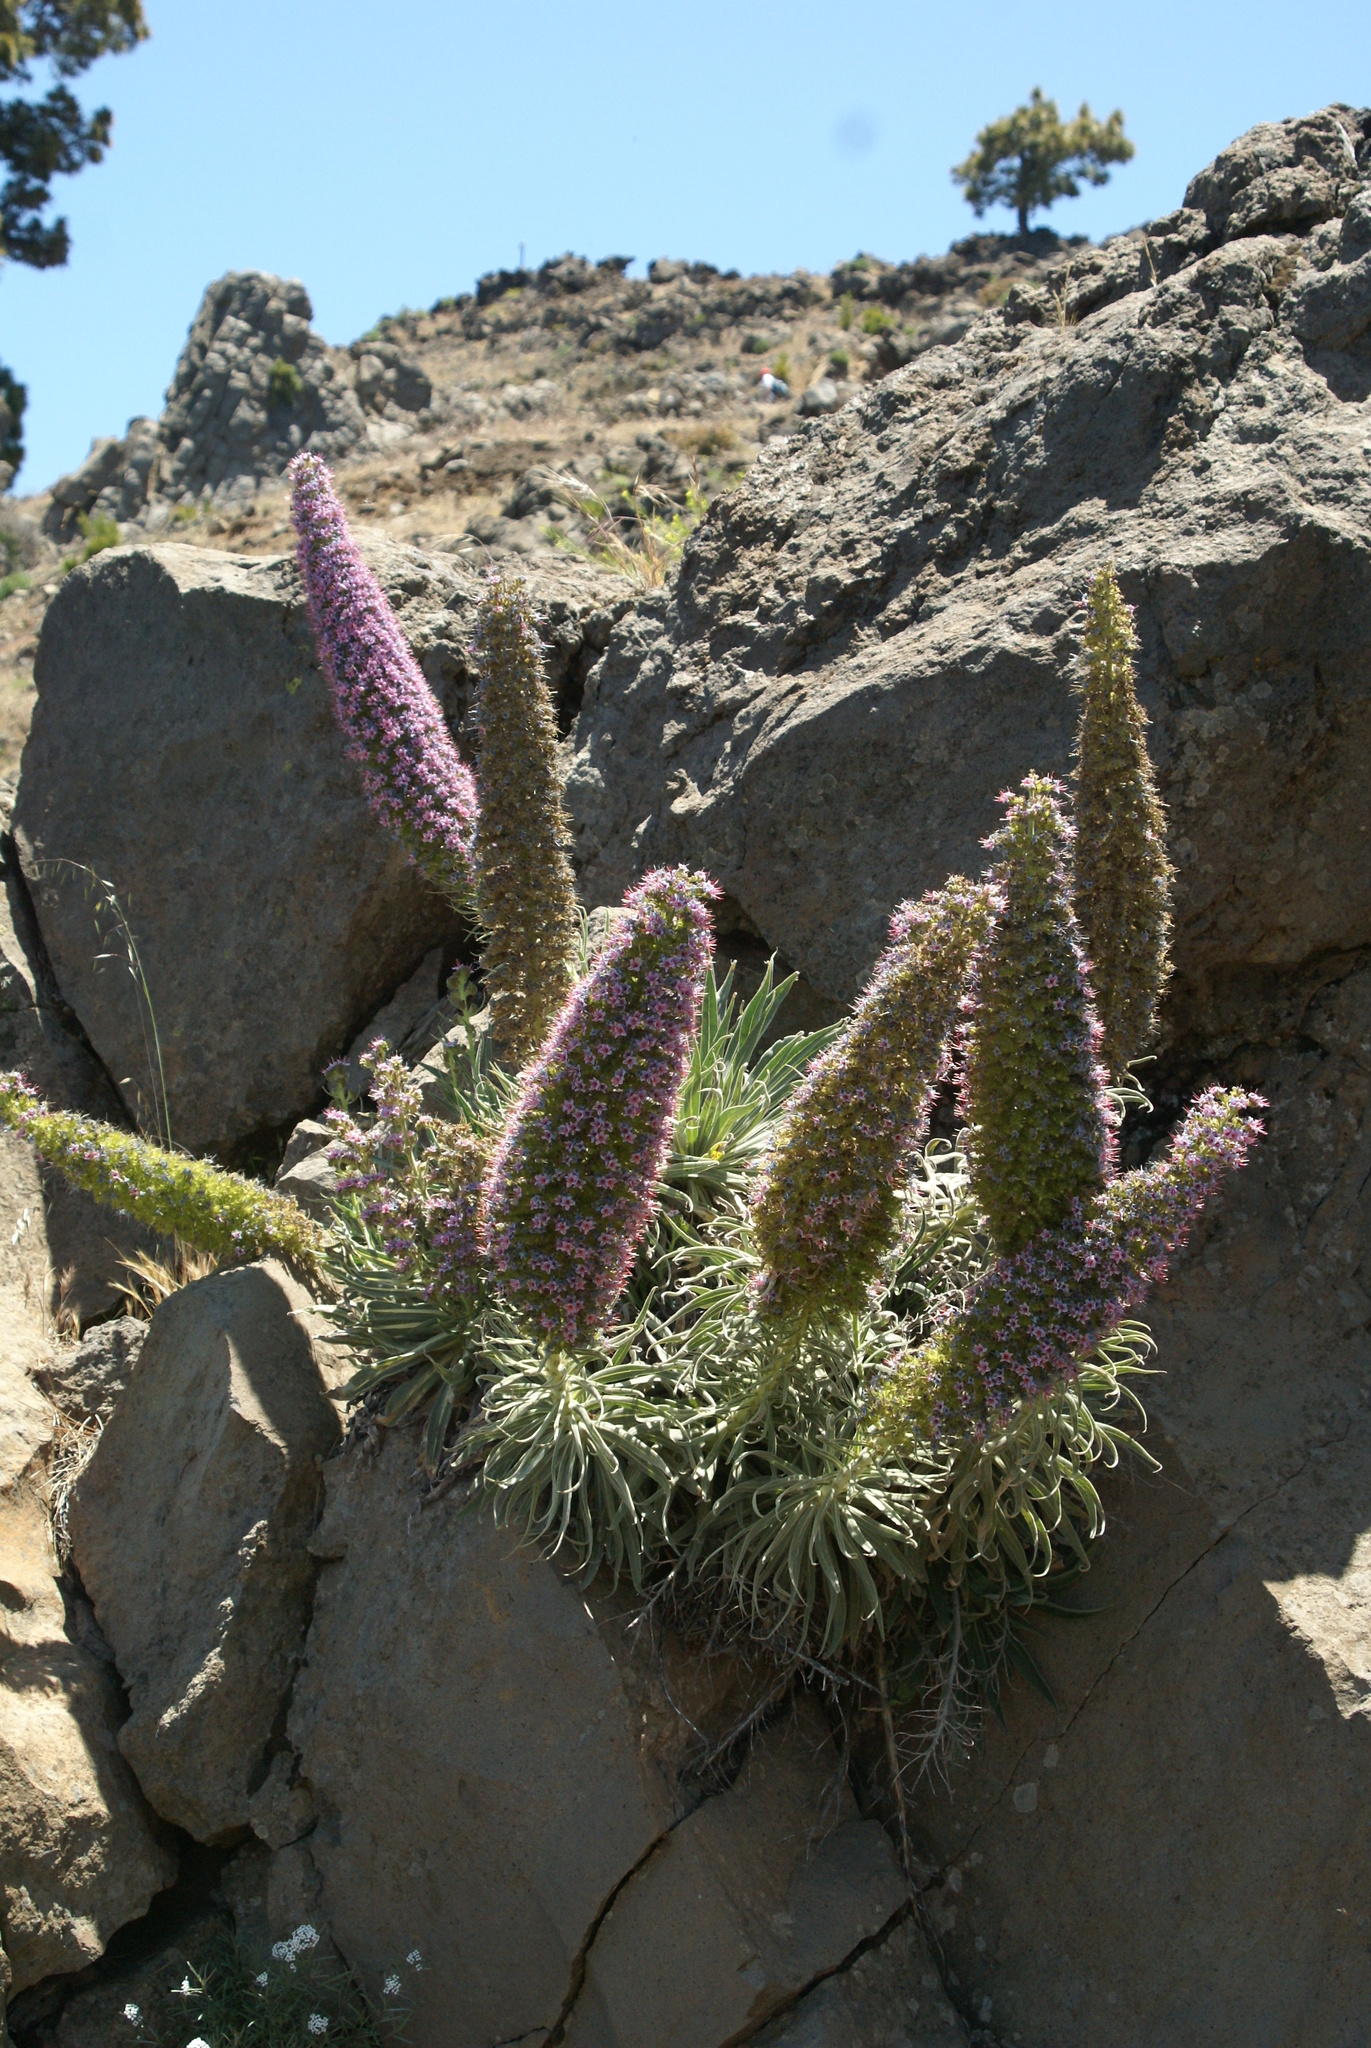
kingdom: Plantae
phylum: Tracheophyta
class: Magnoliopsida
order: Boraginales
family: Boraginaceae
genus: Echium
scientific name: Echium perezii
